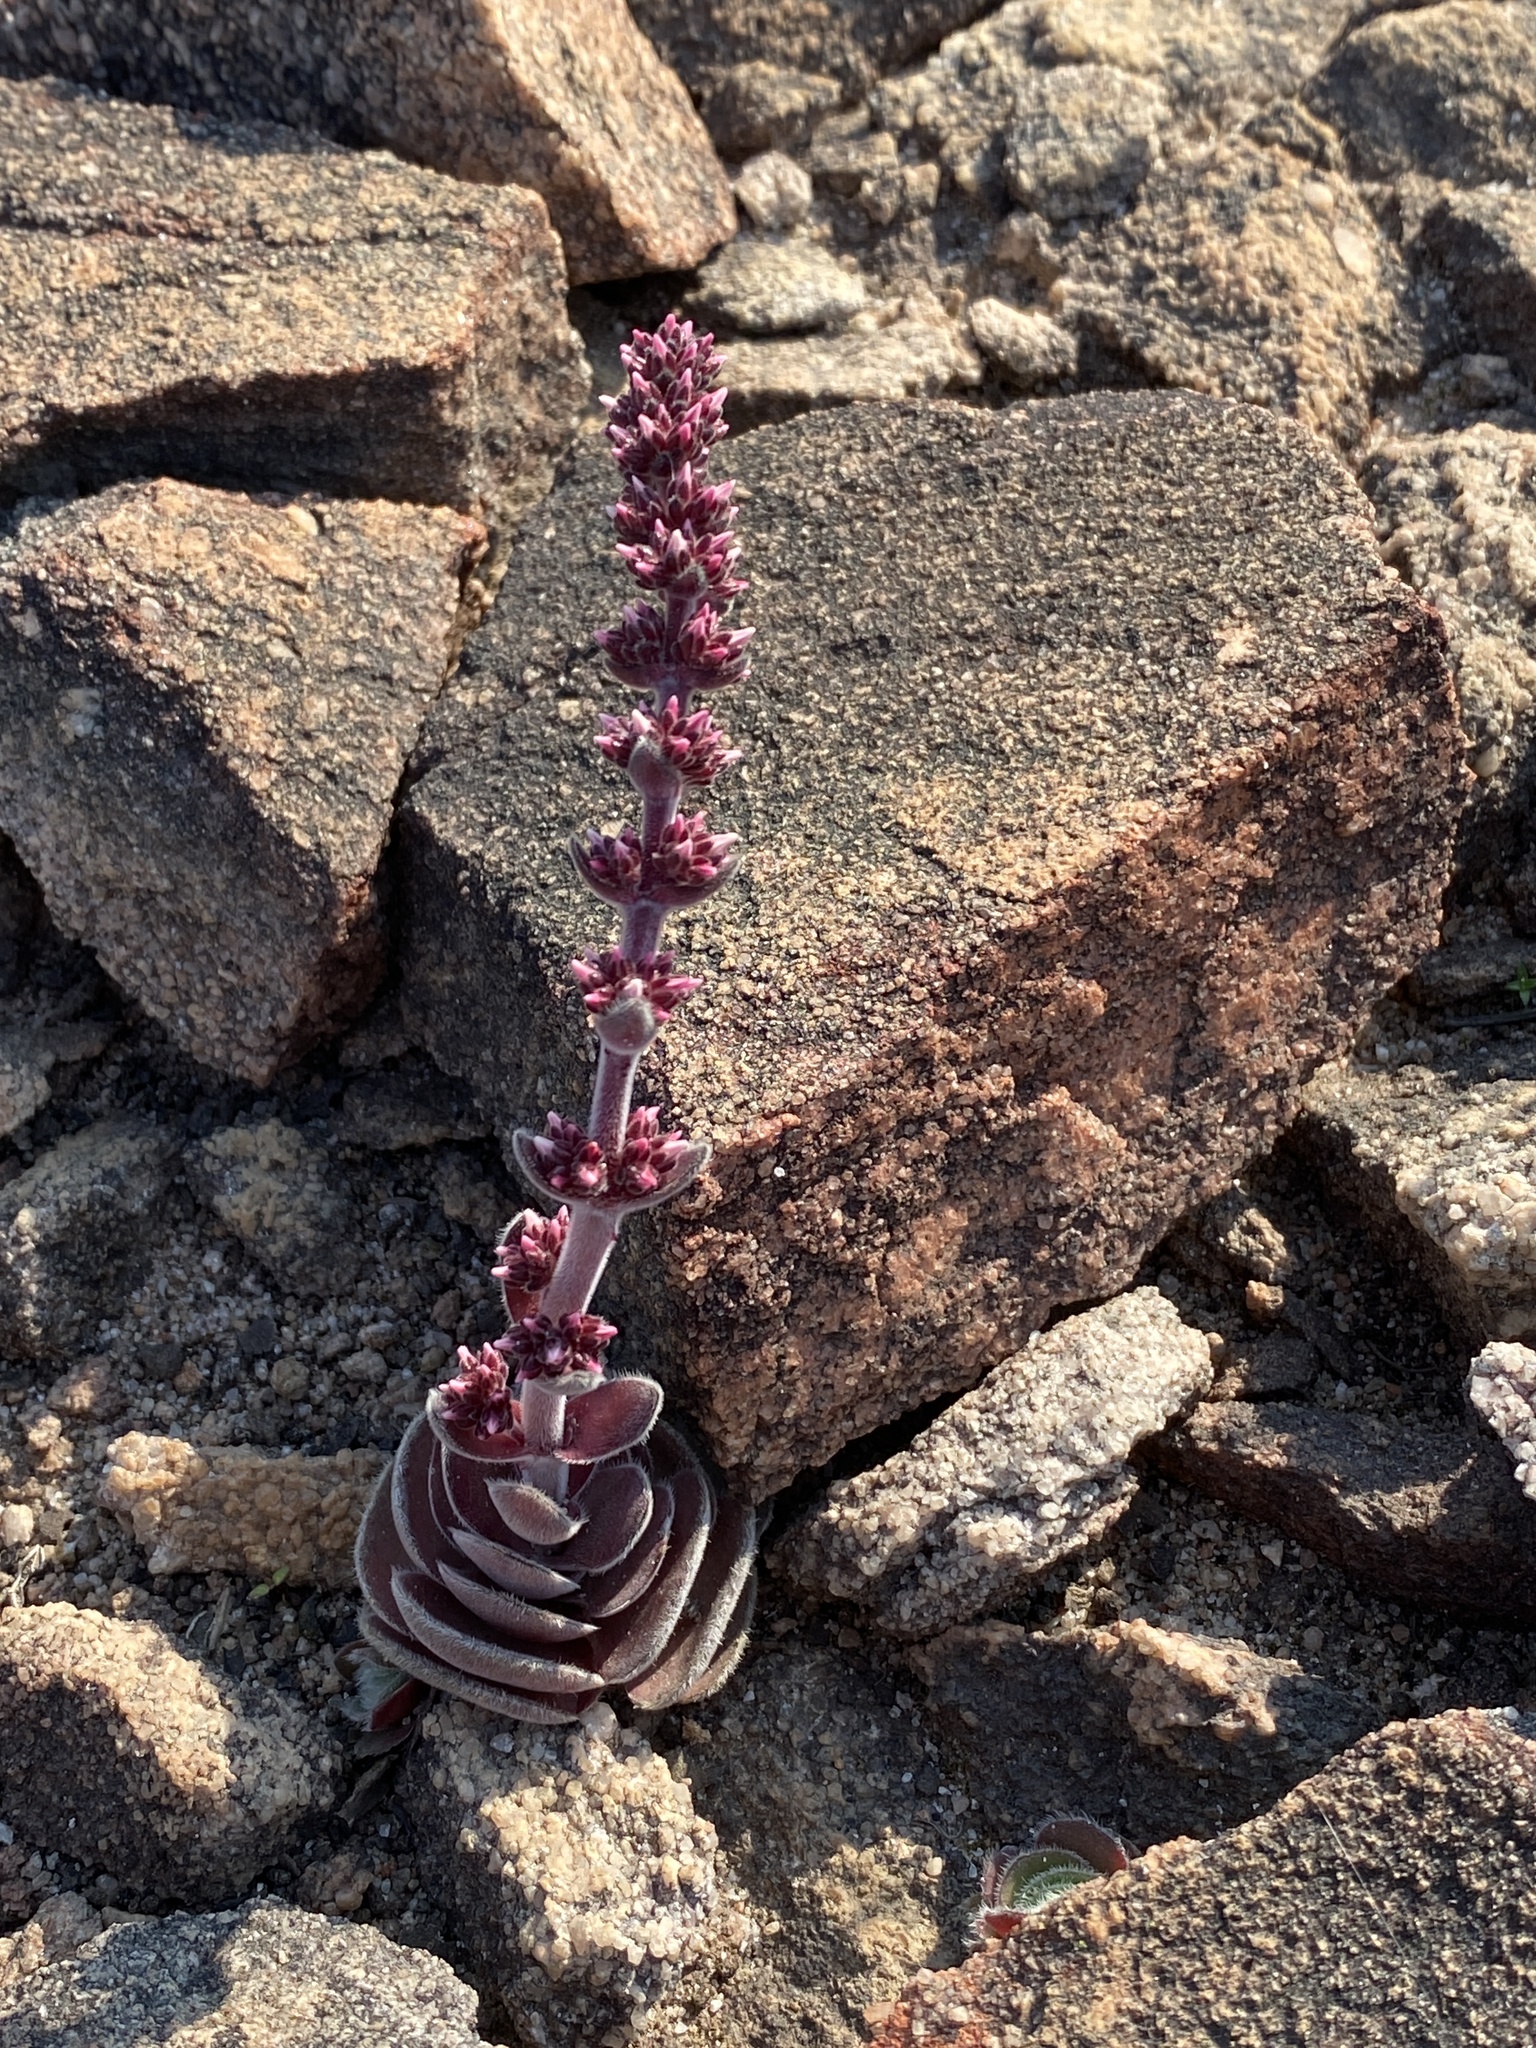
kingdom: Plantae
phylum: Tracheophyta
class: Magnoliopsida
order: Saxifragales
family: Crassulaceae
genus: Crassula
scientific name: Crassula tomentosa
